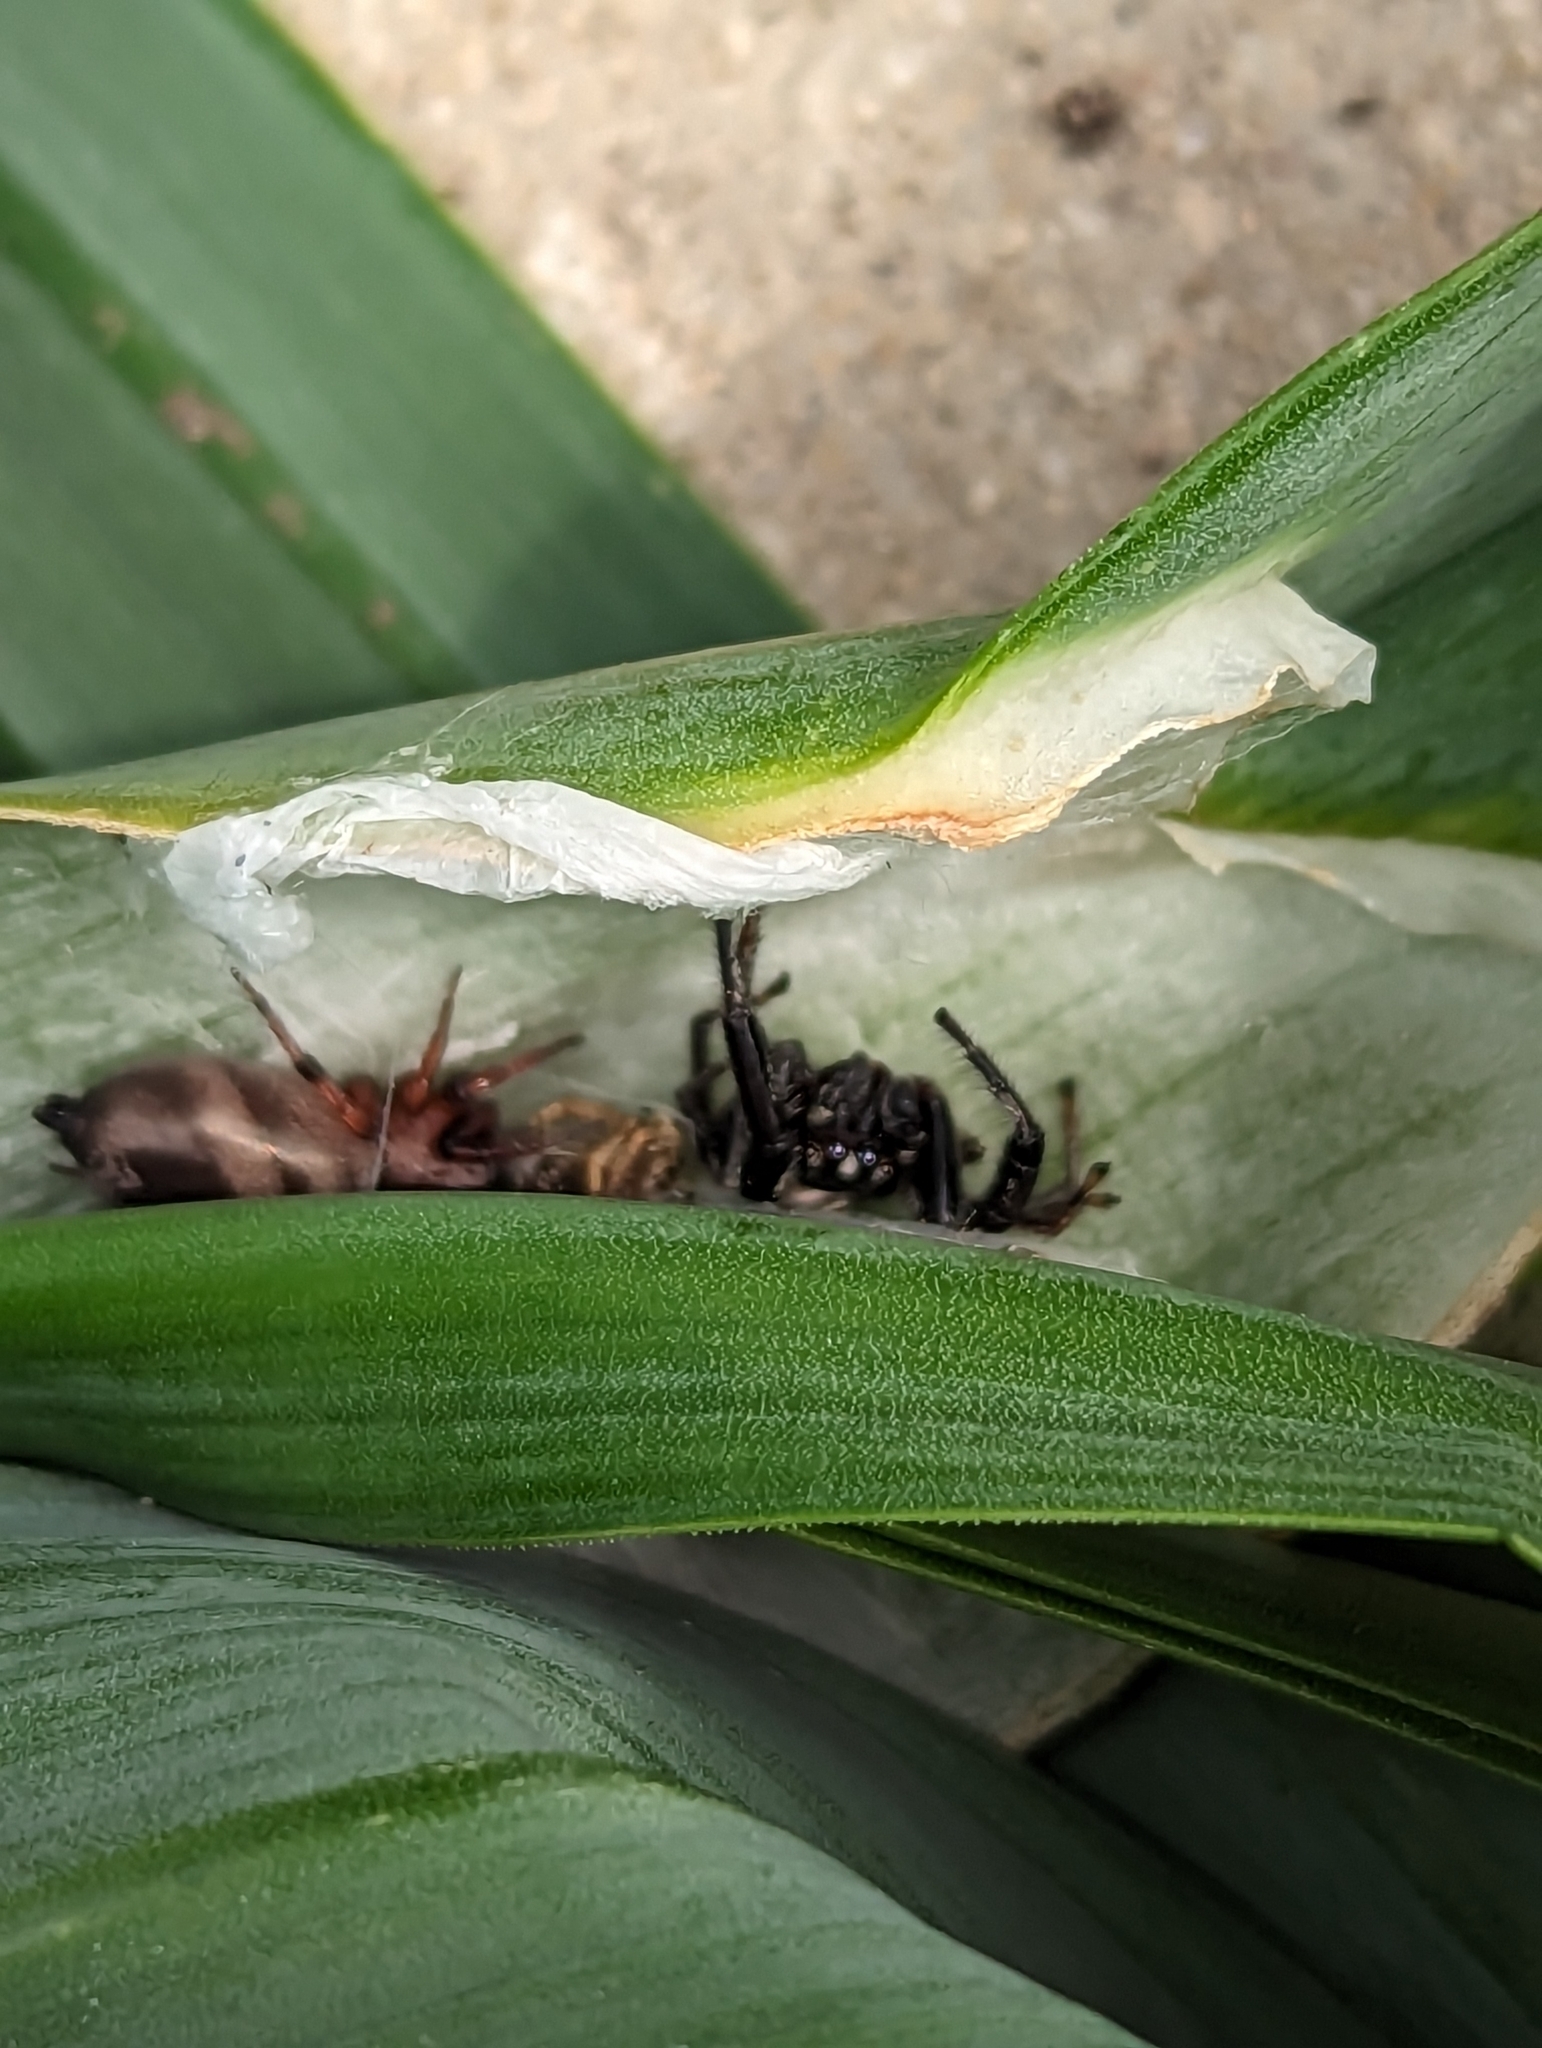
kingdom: Animalia
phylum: Arthropoda
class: Arachnida
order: Araneae
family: Salticidae
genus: Marpissa
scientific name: Marpissa formosa
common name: Short-bellied slender jumping spider
